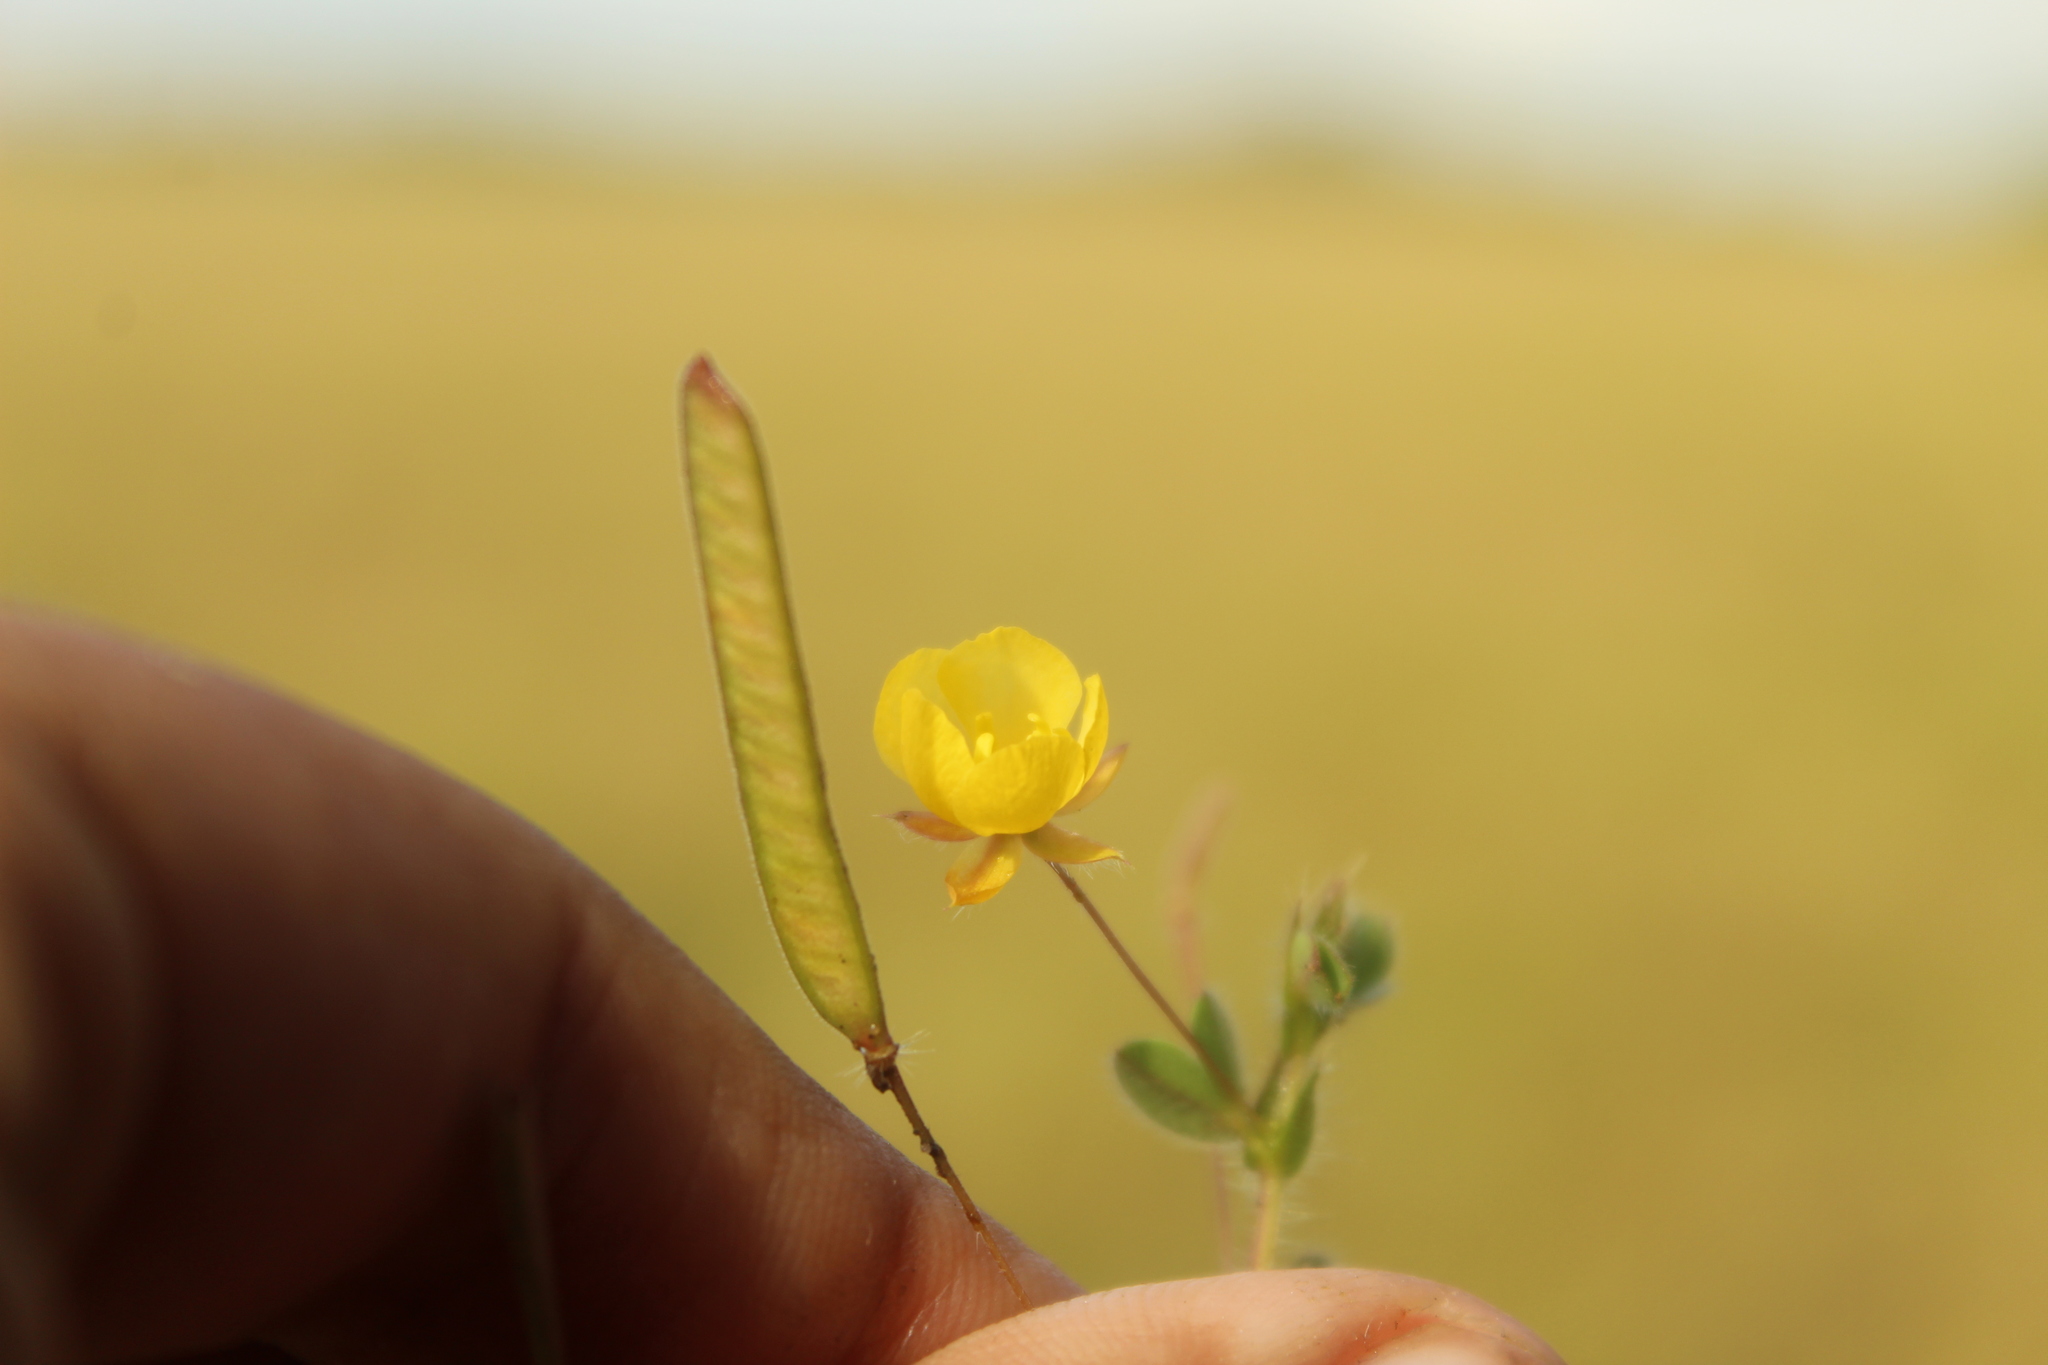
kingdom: Plantae
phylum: Tracheophyta
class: Magnoliopsida
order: Fabales
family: Fabaceae
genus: Chamaecrista
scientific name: Chamaecrista rotundifolia
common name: Round-leaf cassia
